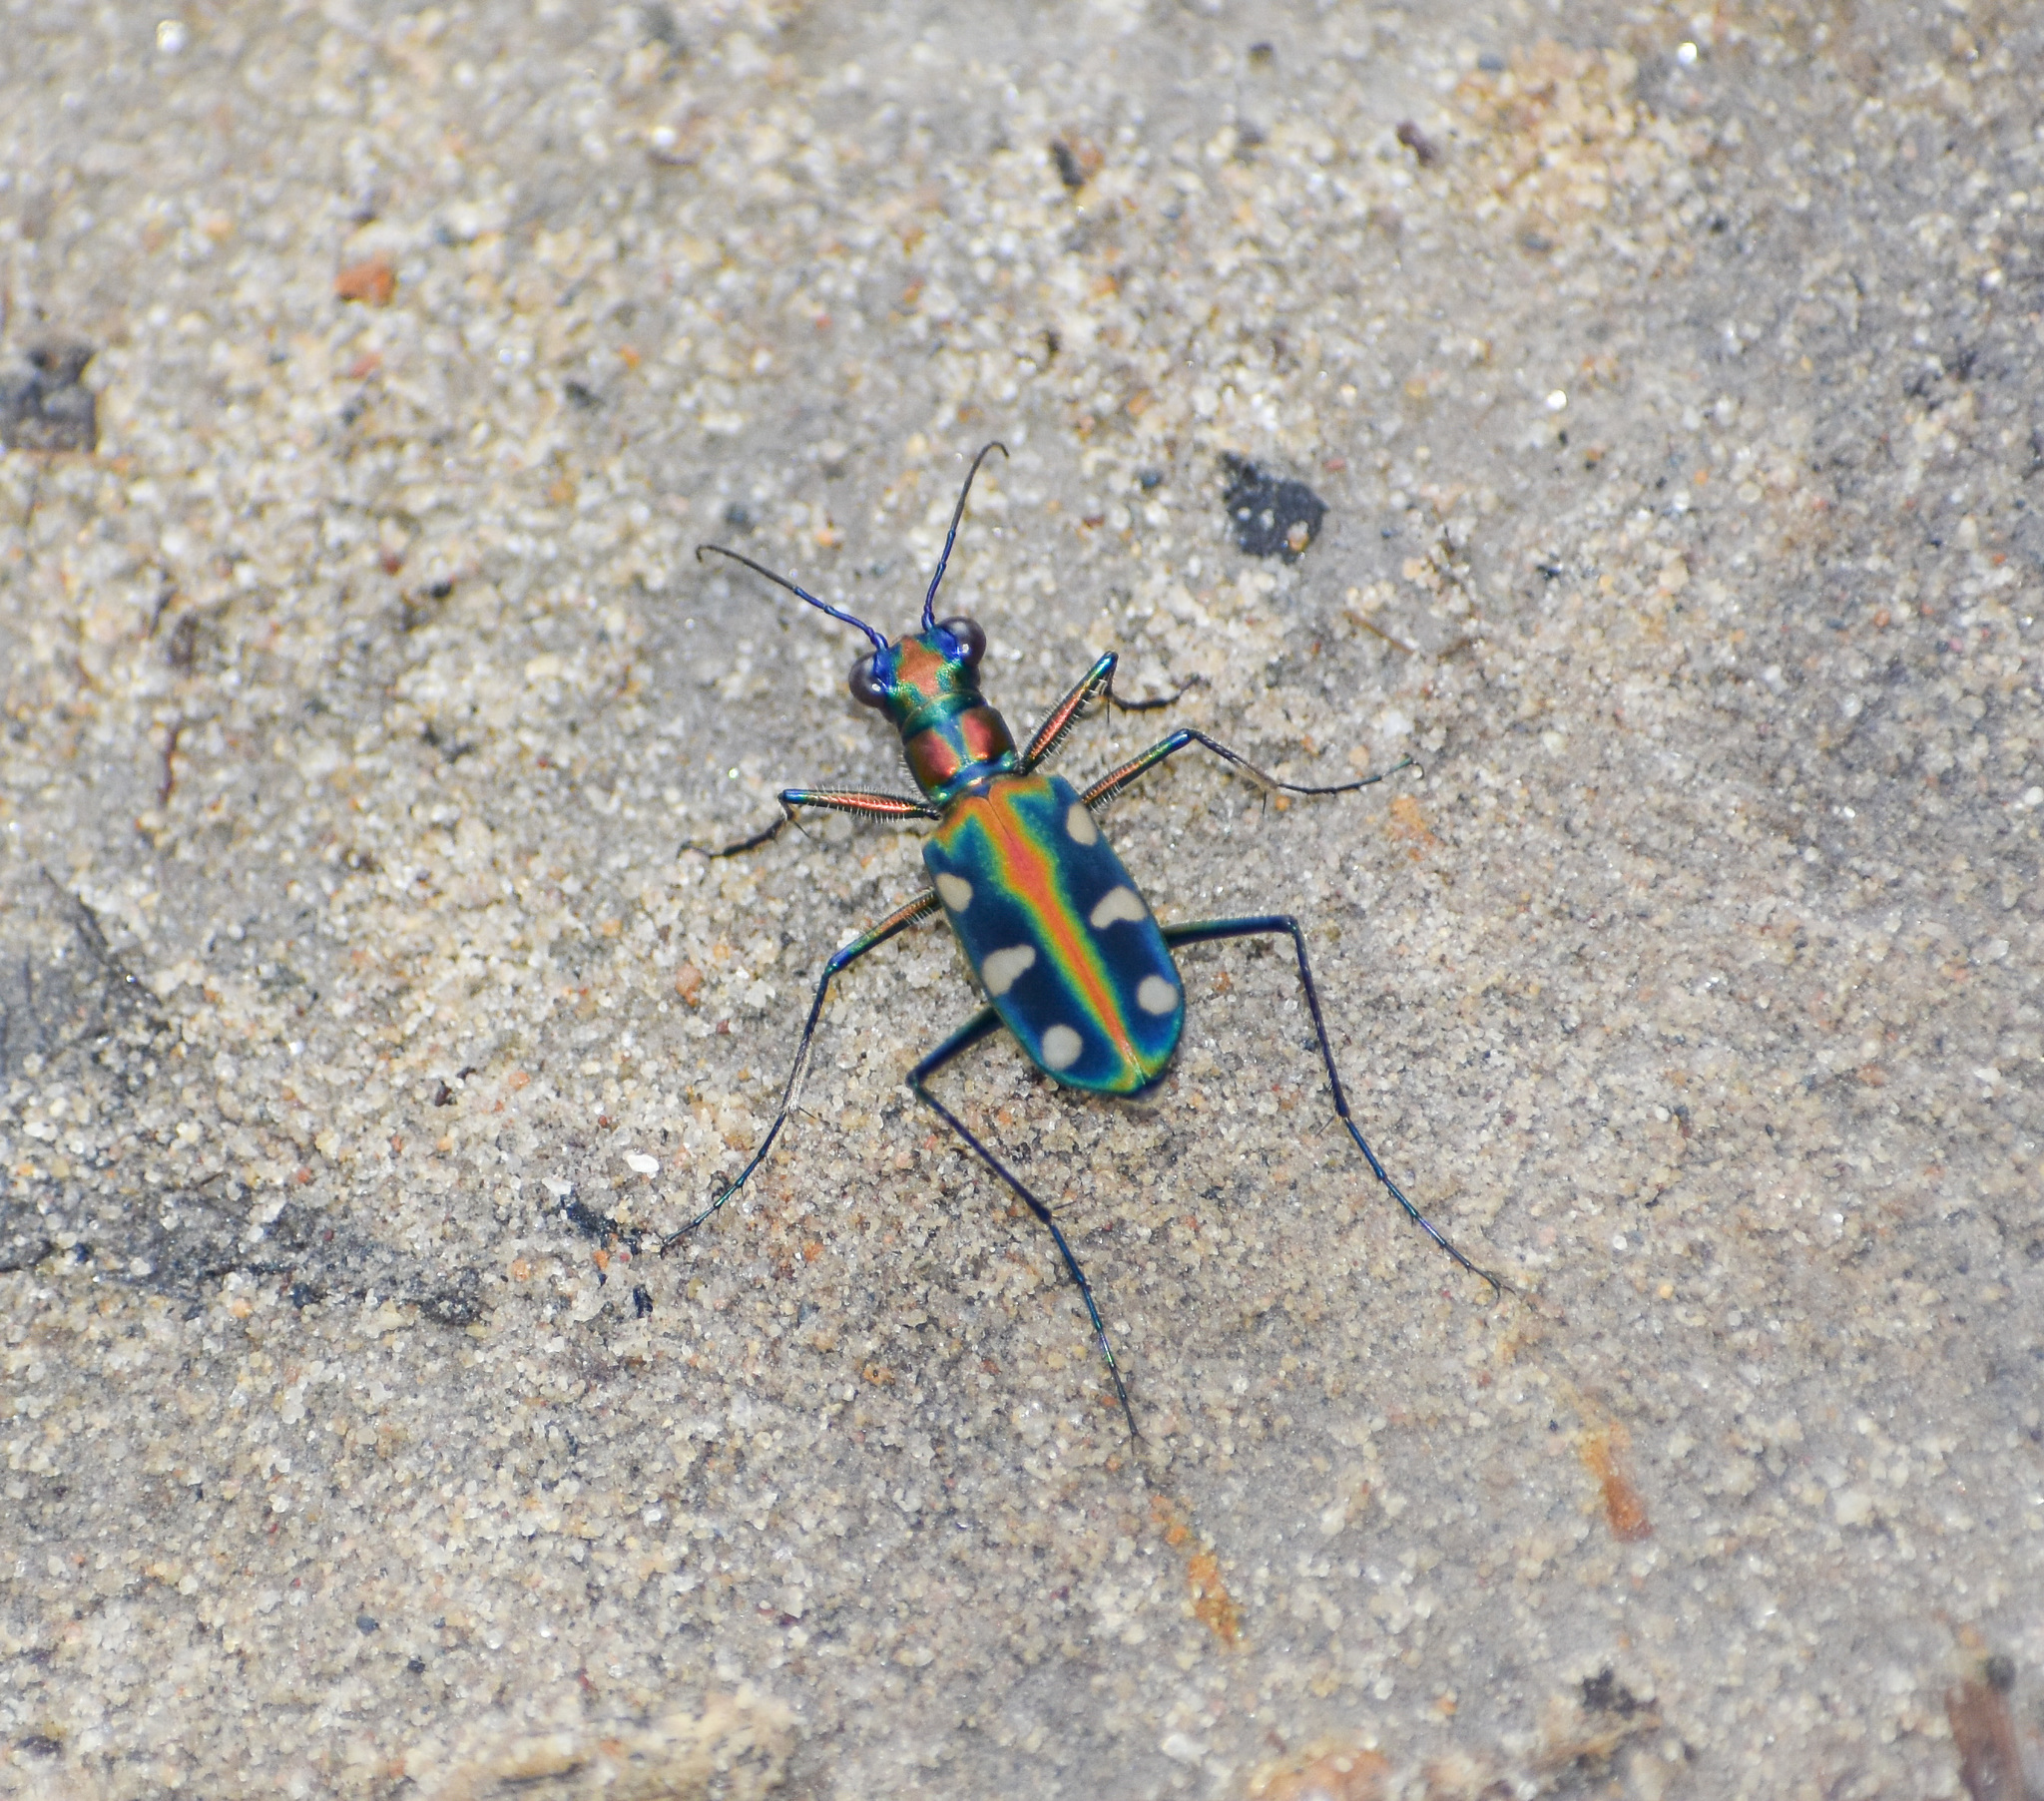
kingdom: Animalia
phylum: Arthropoda
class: Insecta
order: Coleoptera
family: Carabidae
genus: Cicindela
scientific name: Cicindela virgula
